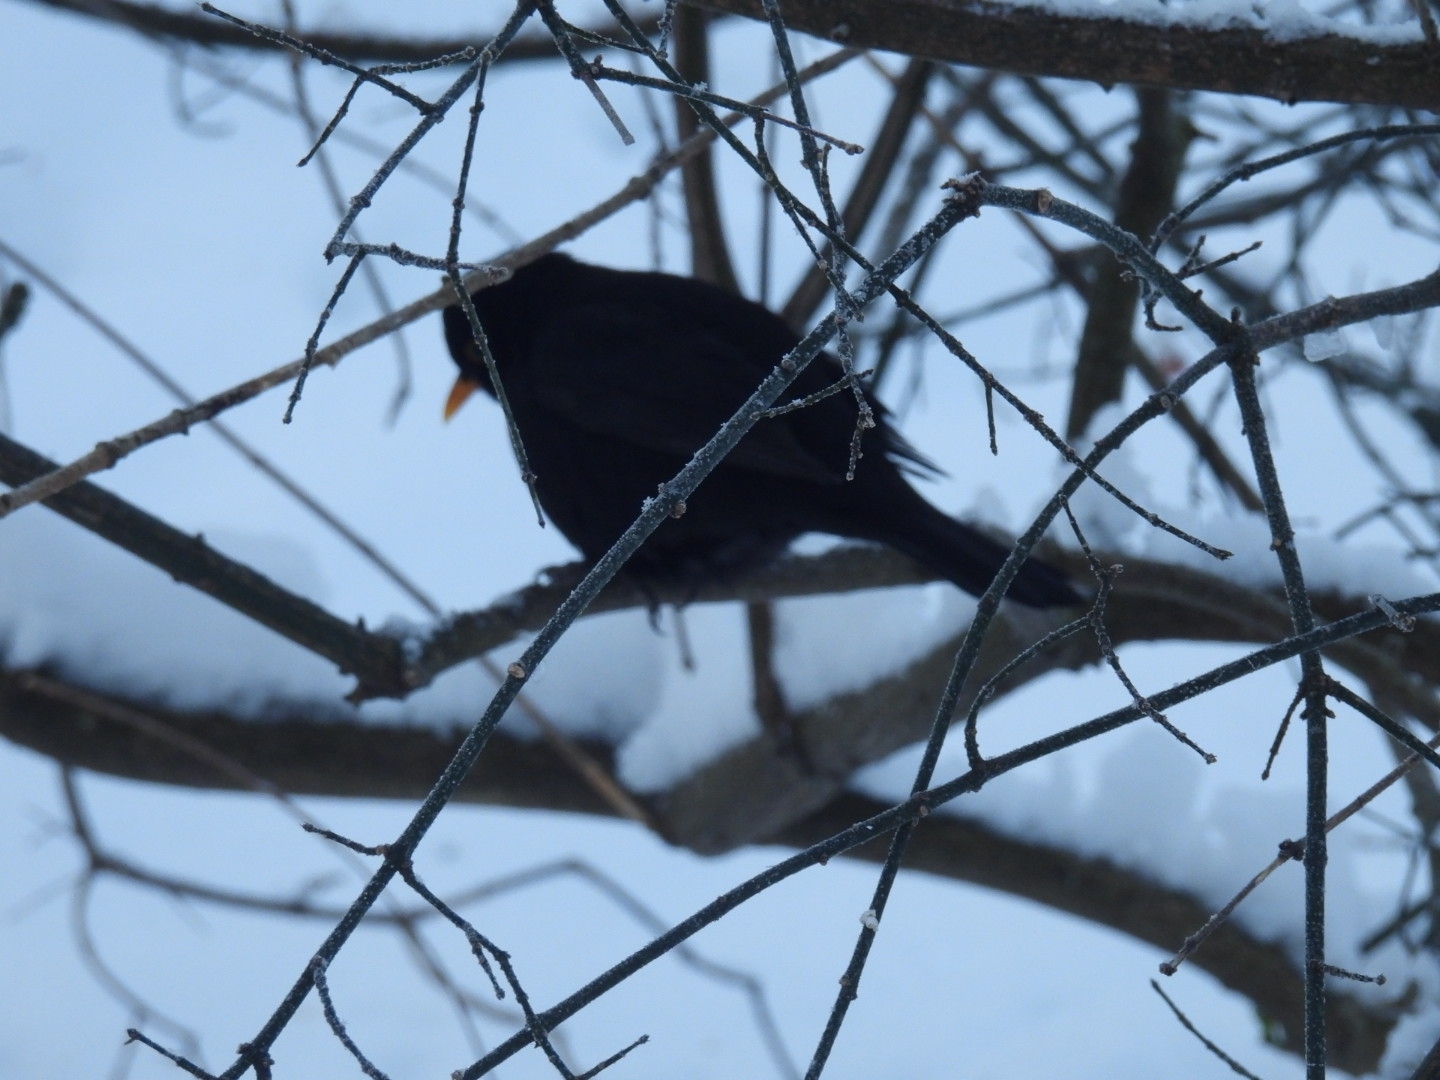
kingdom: Animalia
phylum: Chordata
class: Aves
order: Passeriformes
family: Turdidae
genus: Turdus
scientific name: Turdus merula
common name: Common blackbird
